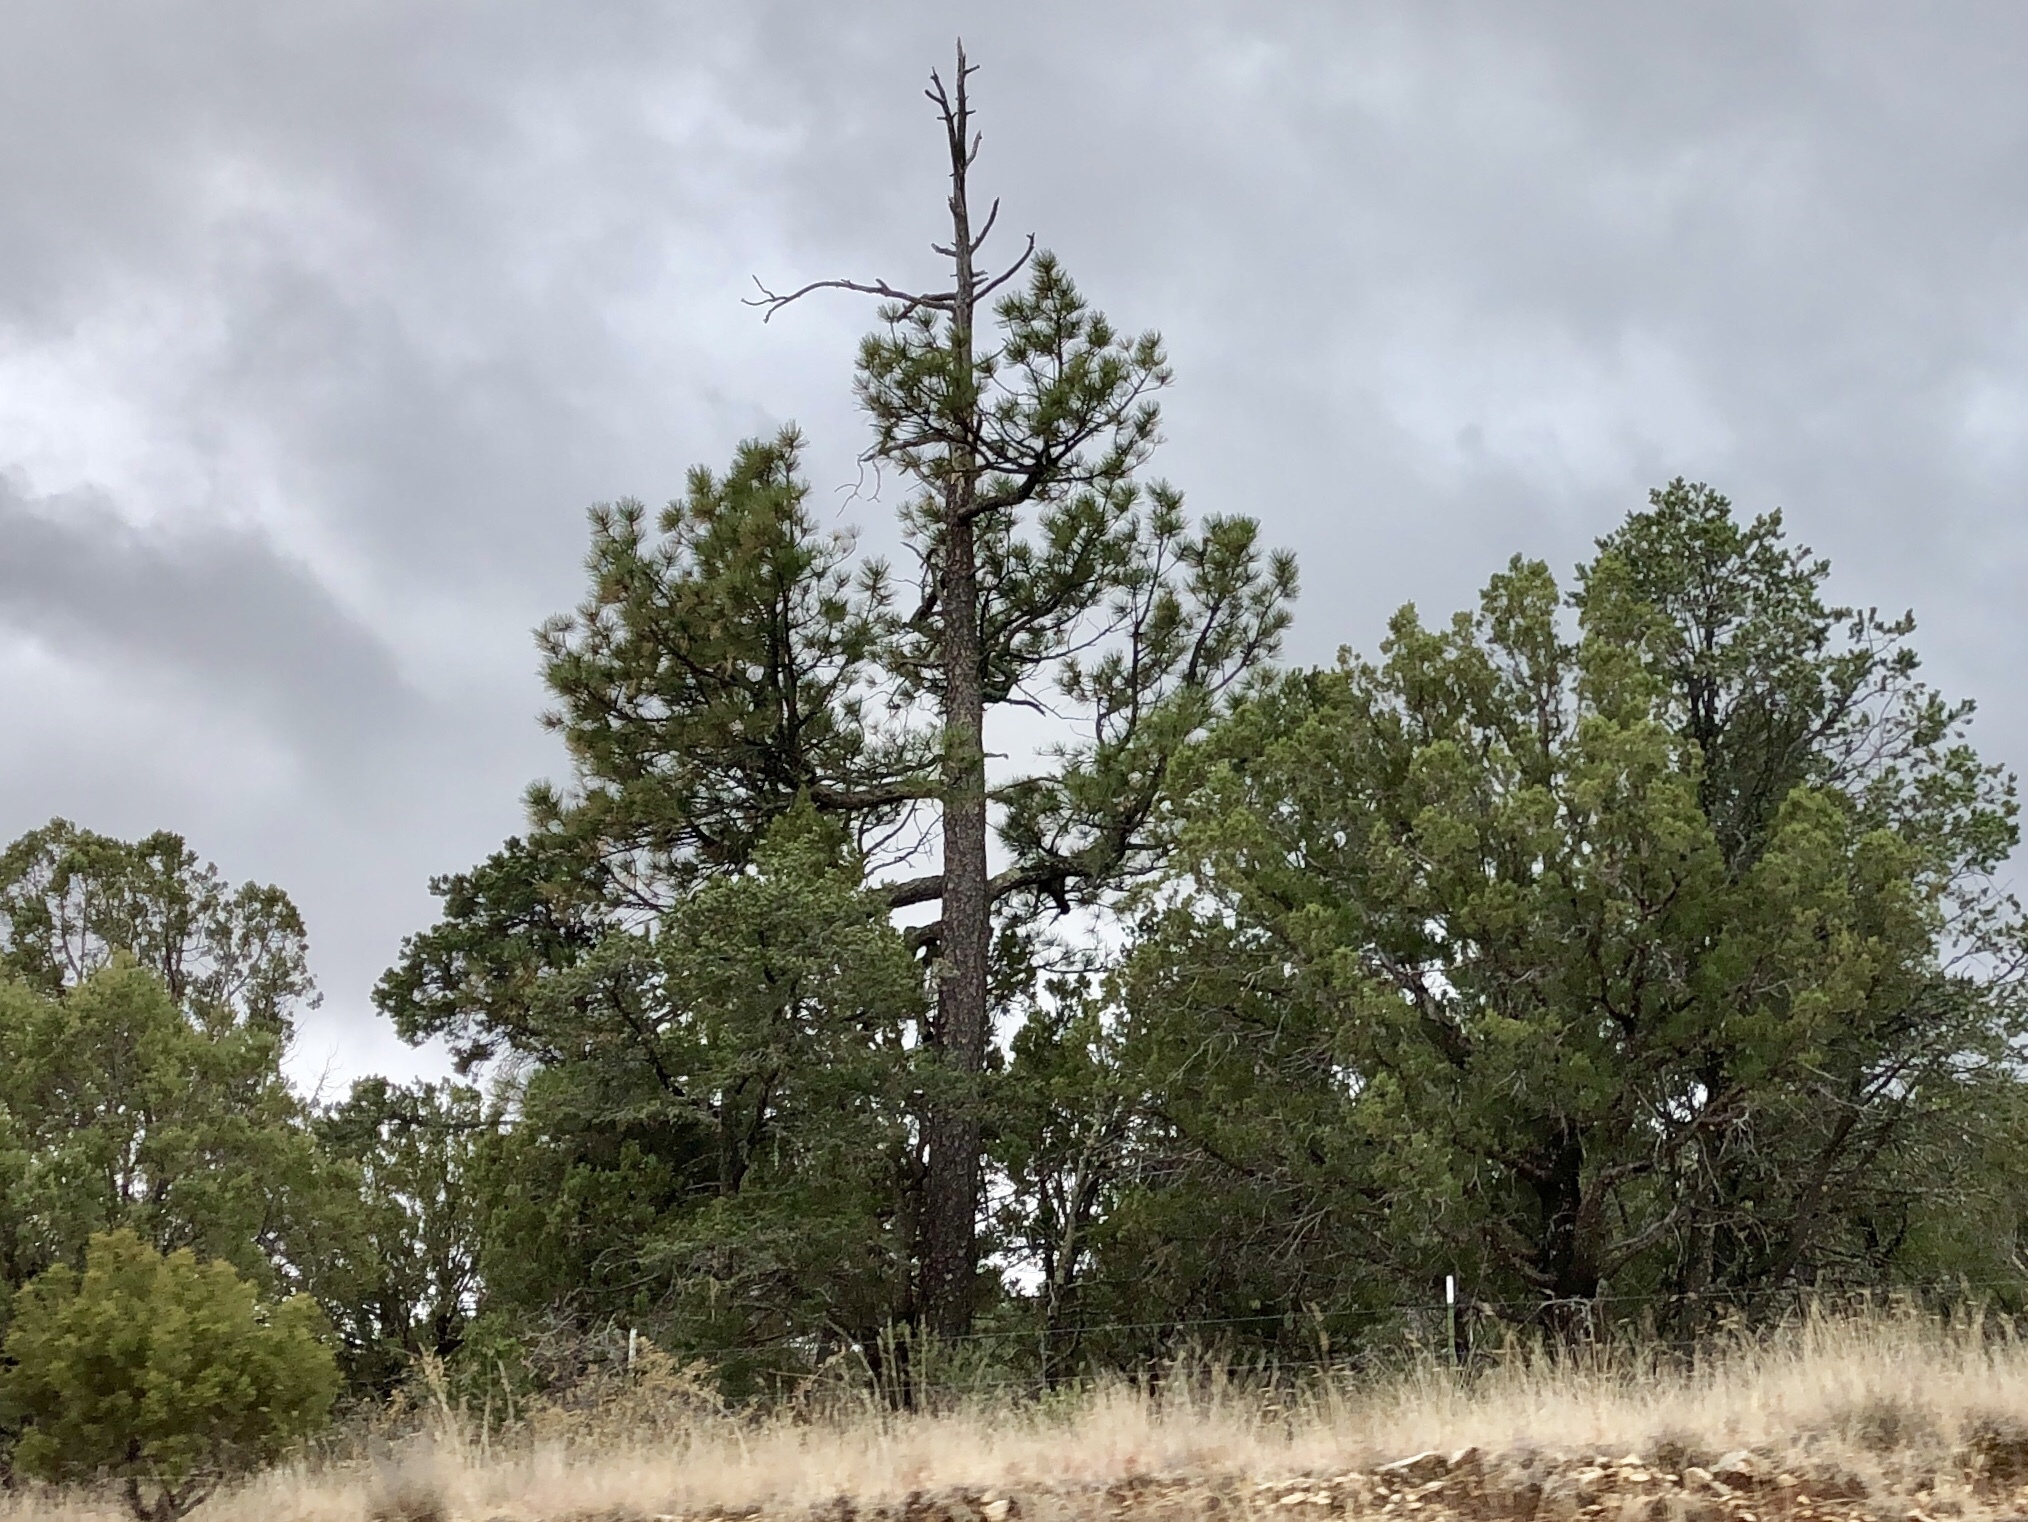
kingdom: Plantae
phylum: Tracheophyta
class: Pinopsida
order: Pinales
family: Pinaceae
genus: Pinus
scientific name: Pinus ponderosa
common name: Western yellow-pine
